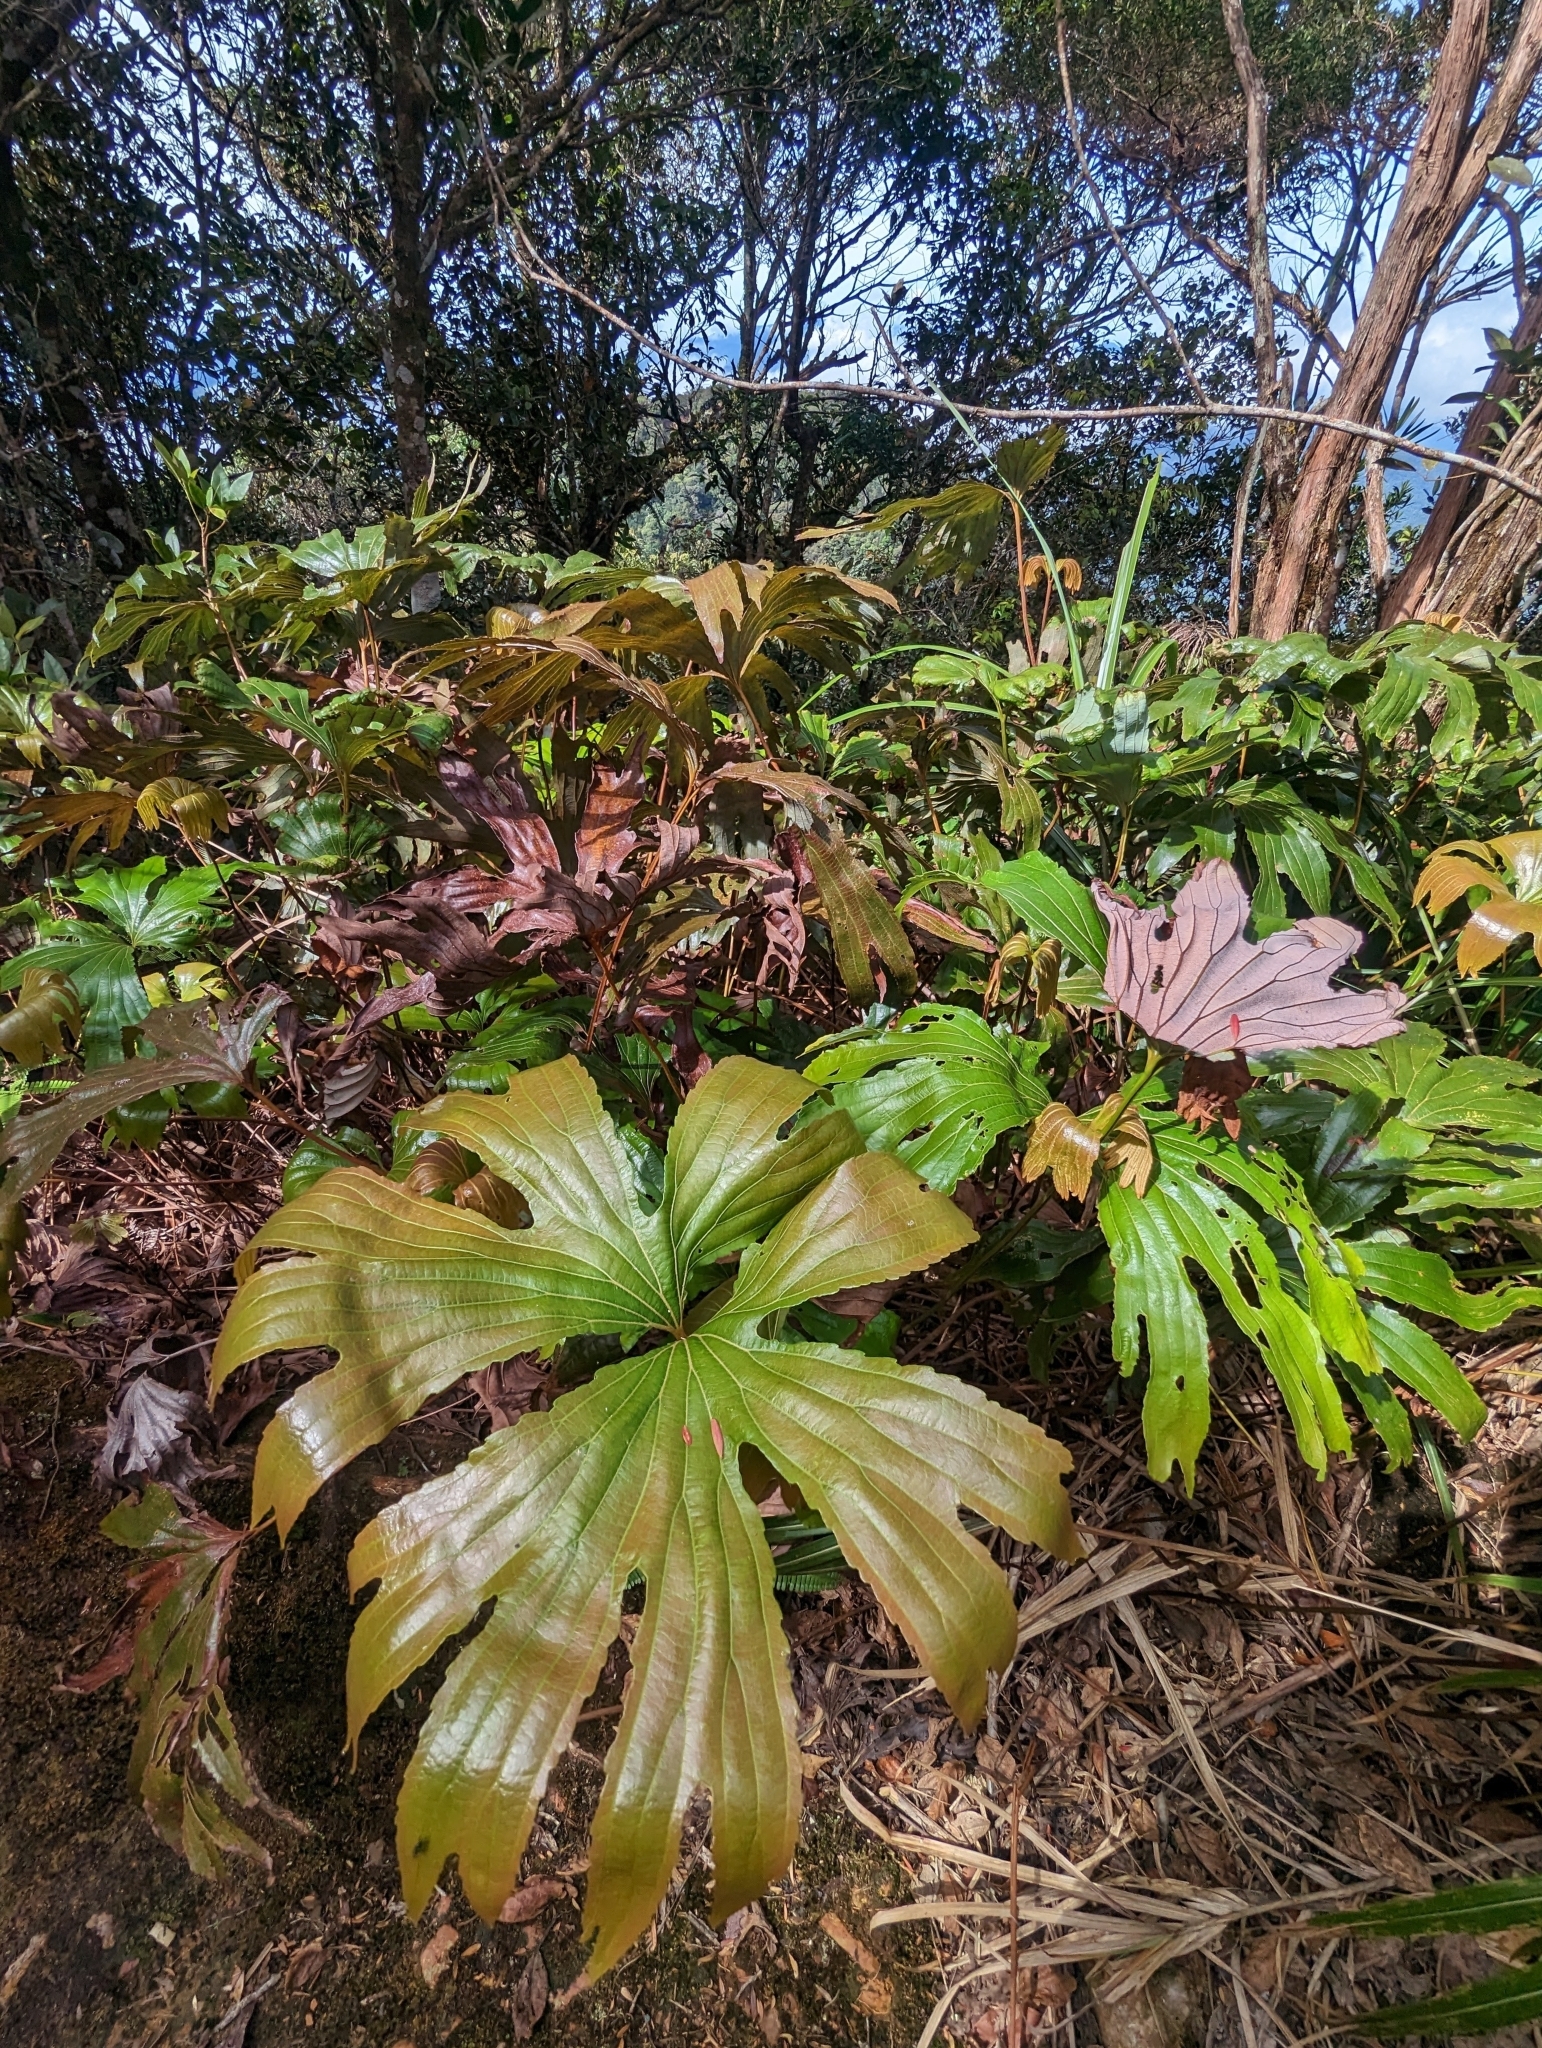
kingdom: Plantae
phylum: Tracheophyta
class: Polypodiopsida
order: Gleicheniales
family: Dipteridaceae
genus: Dipteris
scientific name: Dipteris conjugata
